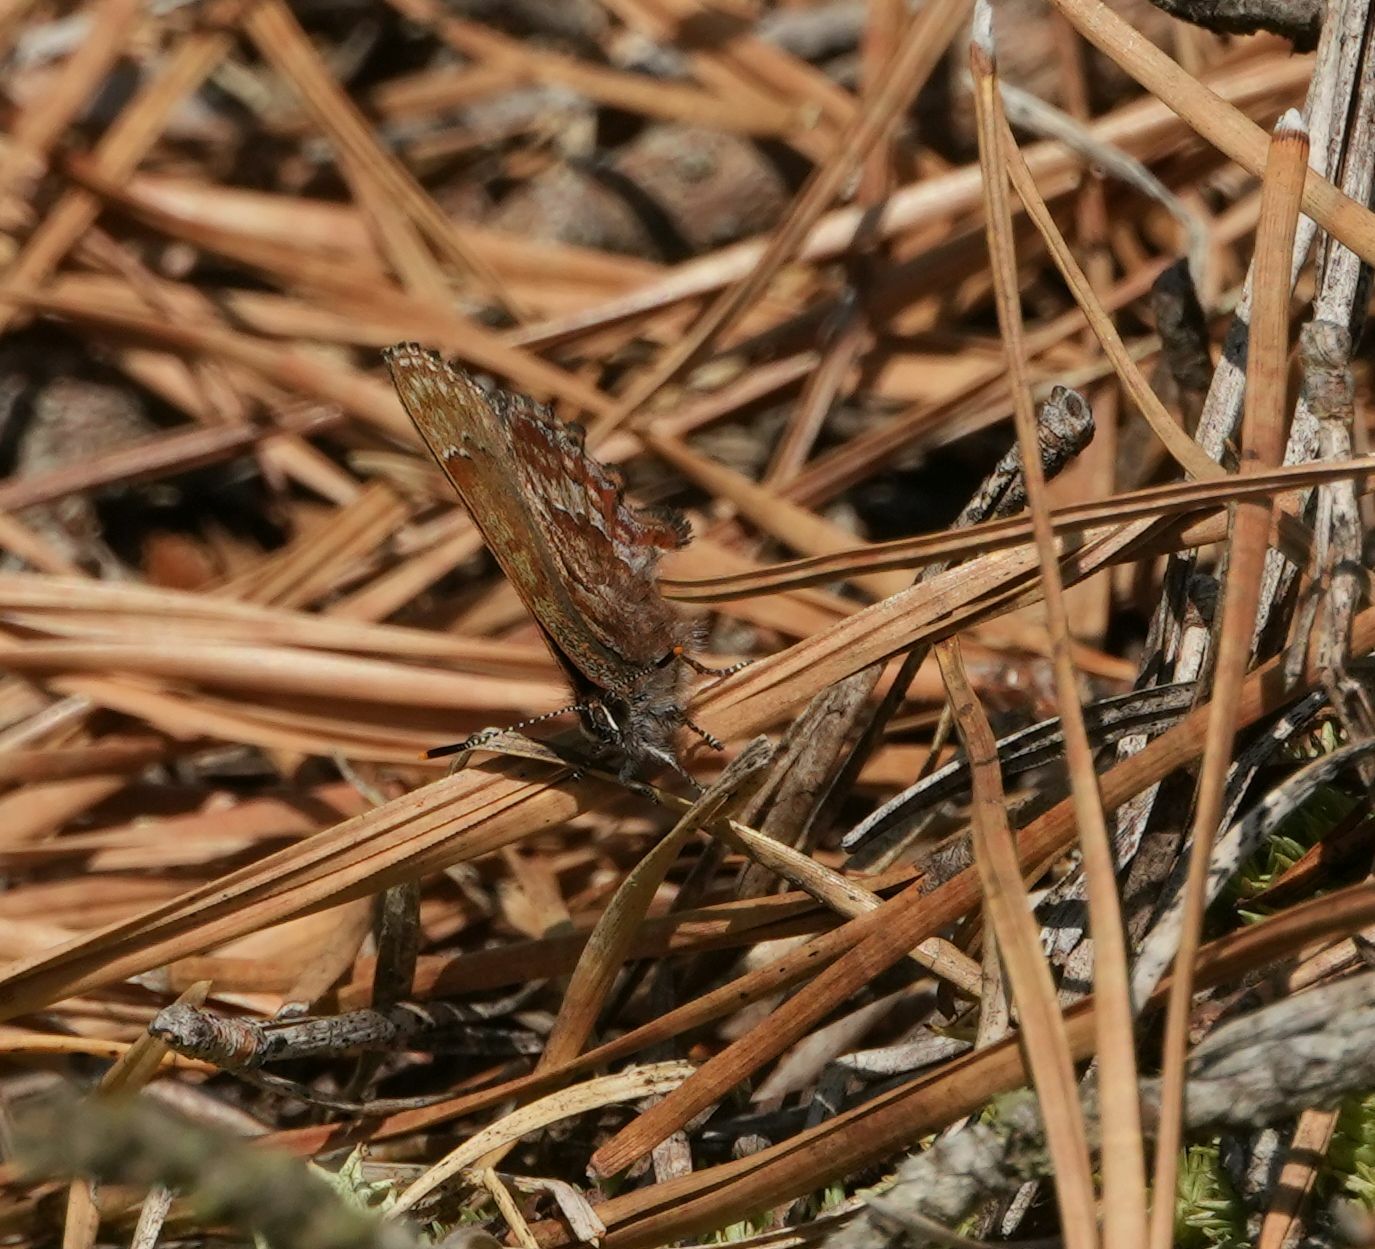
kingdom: Animalia
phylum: Arthropoda
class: Insecta
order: Lepidoptera
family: Lycaenidae
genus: Incisalia
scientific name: Incisalia niphon
